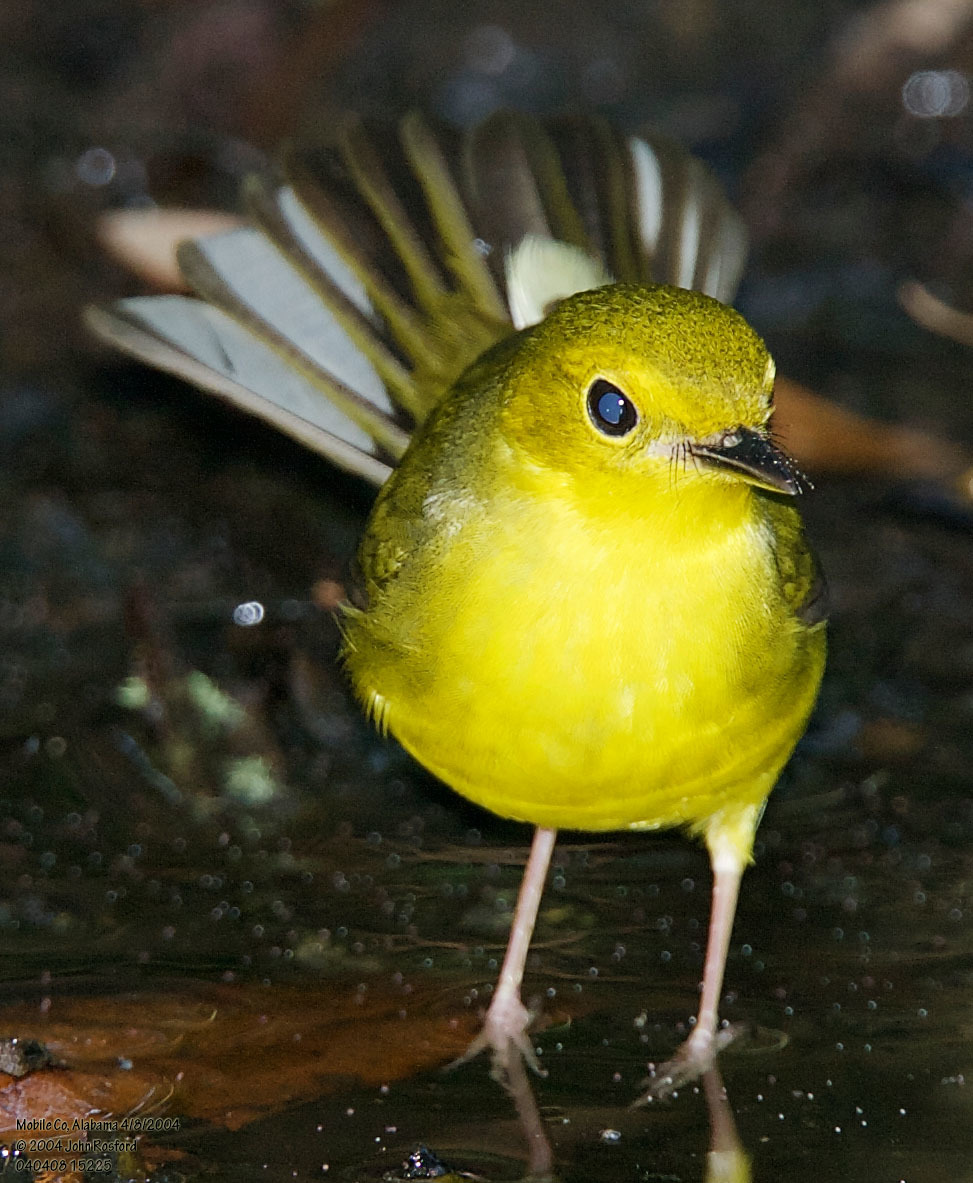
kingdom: Animalia
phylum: Chordata
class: Aves
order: Passeriformes
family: Parulidae
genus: Setophaga
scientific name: Setophaga citrina
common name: Hooded warbler
